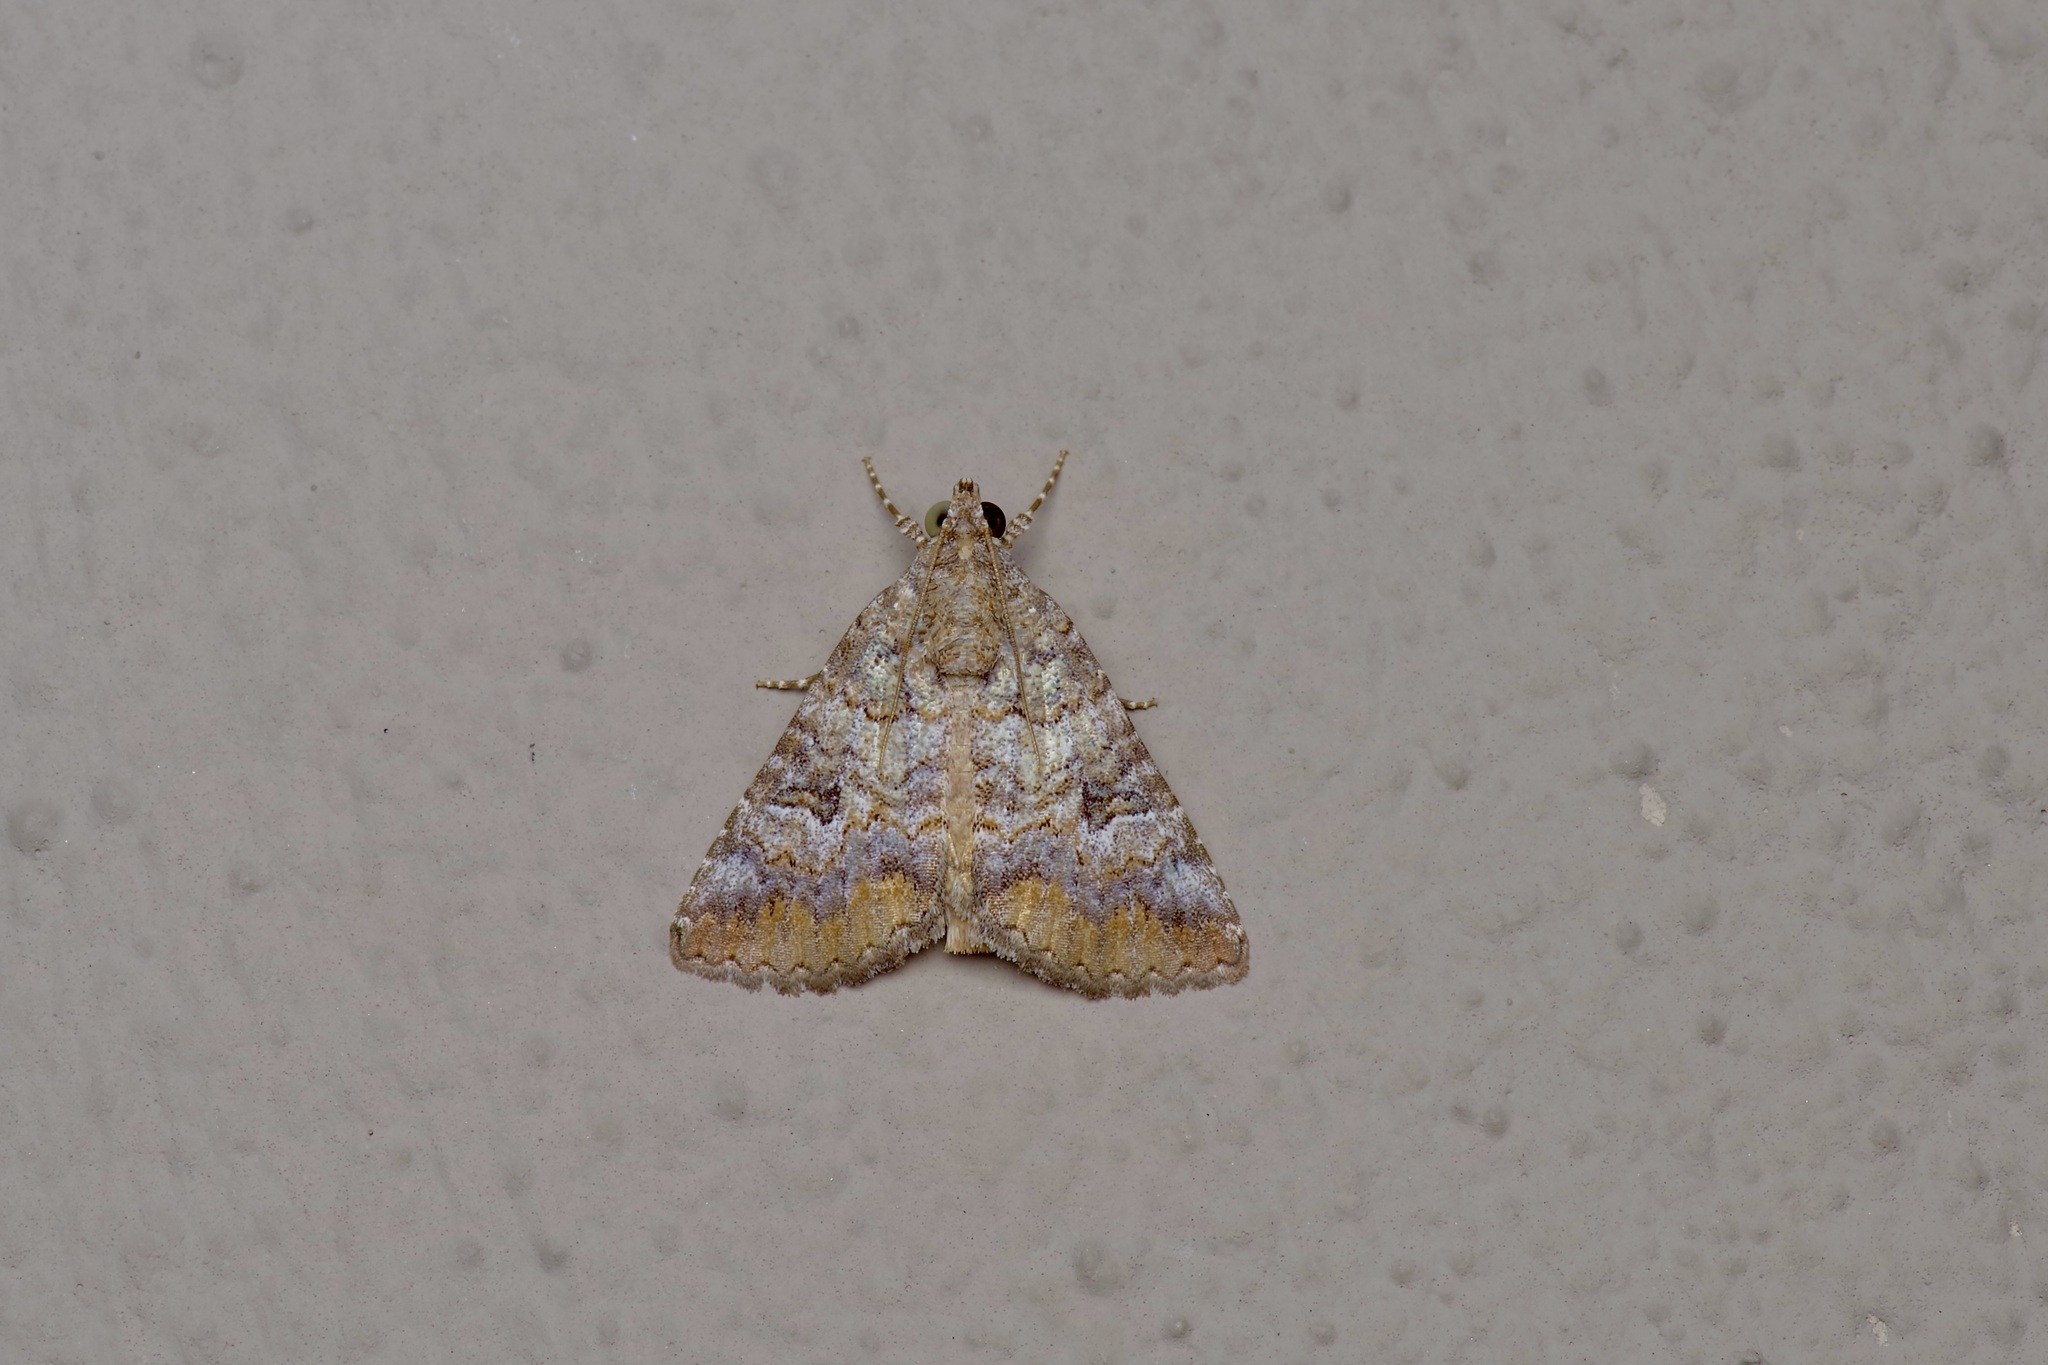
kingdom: Animalia
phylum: Arthropoda
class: Insecta
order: Lepidoptera
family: Erebidae
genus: Eubolina
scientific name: Eubolina impartialis
